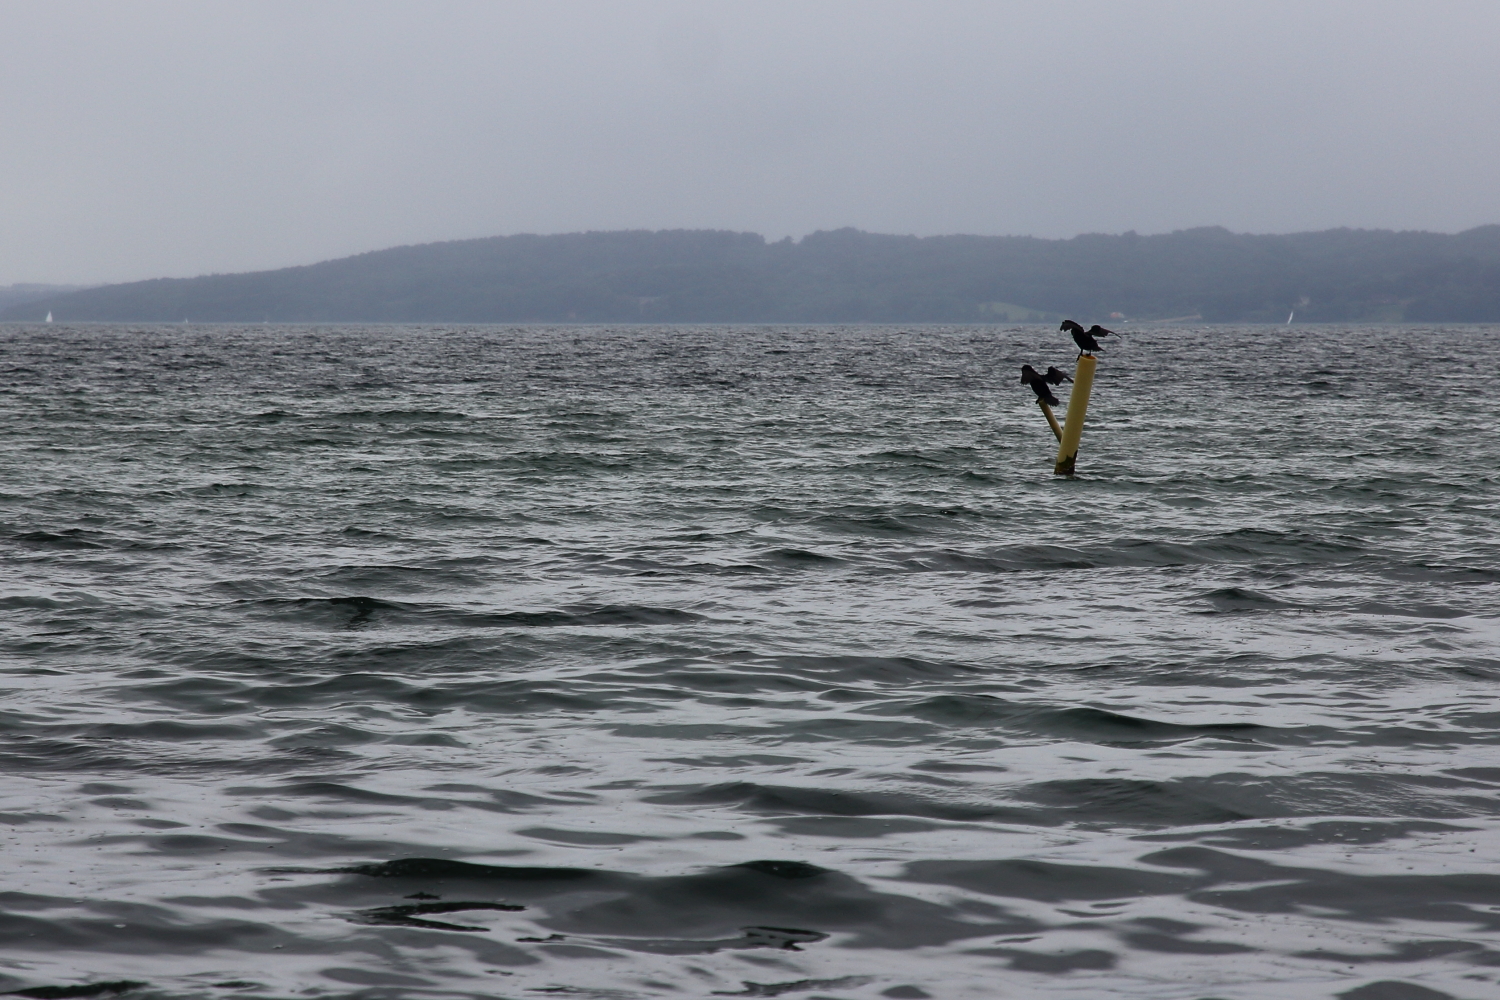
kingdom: Animalia
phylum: Chordata
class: Aves
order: Suliformes
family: Phalacrocoracidae
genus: Phalacrocorax
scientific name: Phalacrocorax carbo
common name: Great cormorant
